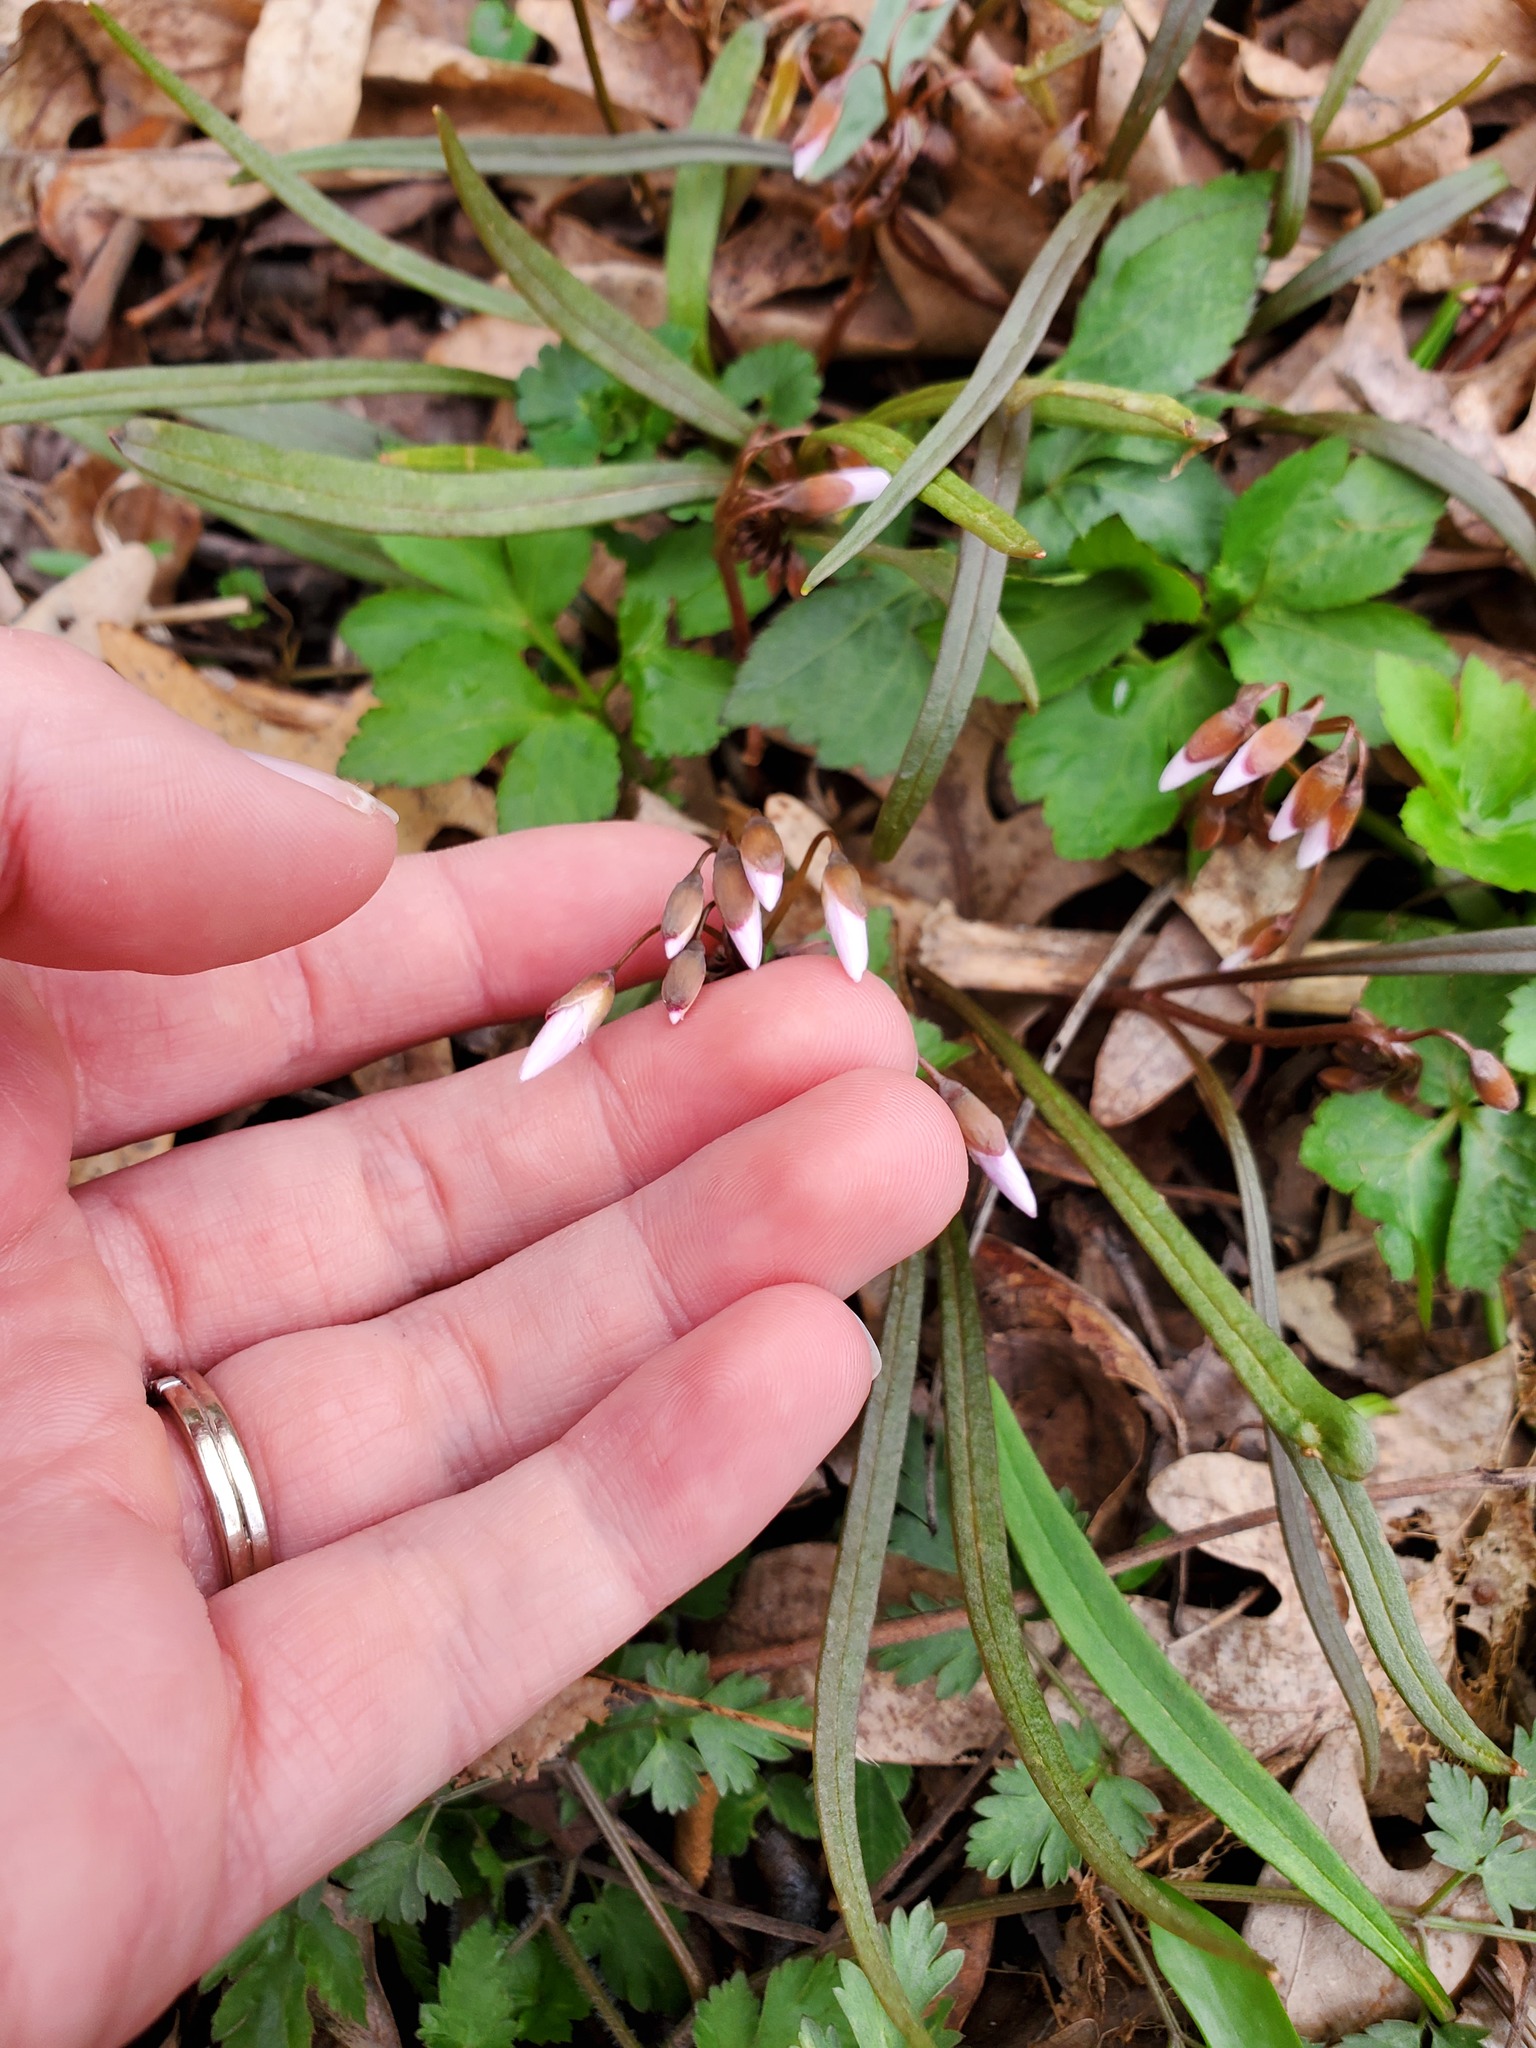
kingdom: Plantae
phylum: Tracheophyta
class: Magnoliopsida
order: Caryophyllales
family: Montiaceae
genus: Claytonia
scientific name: Claytonia virginica
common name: Virginia springbeauty
